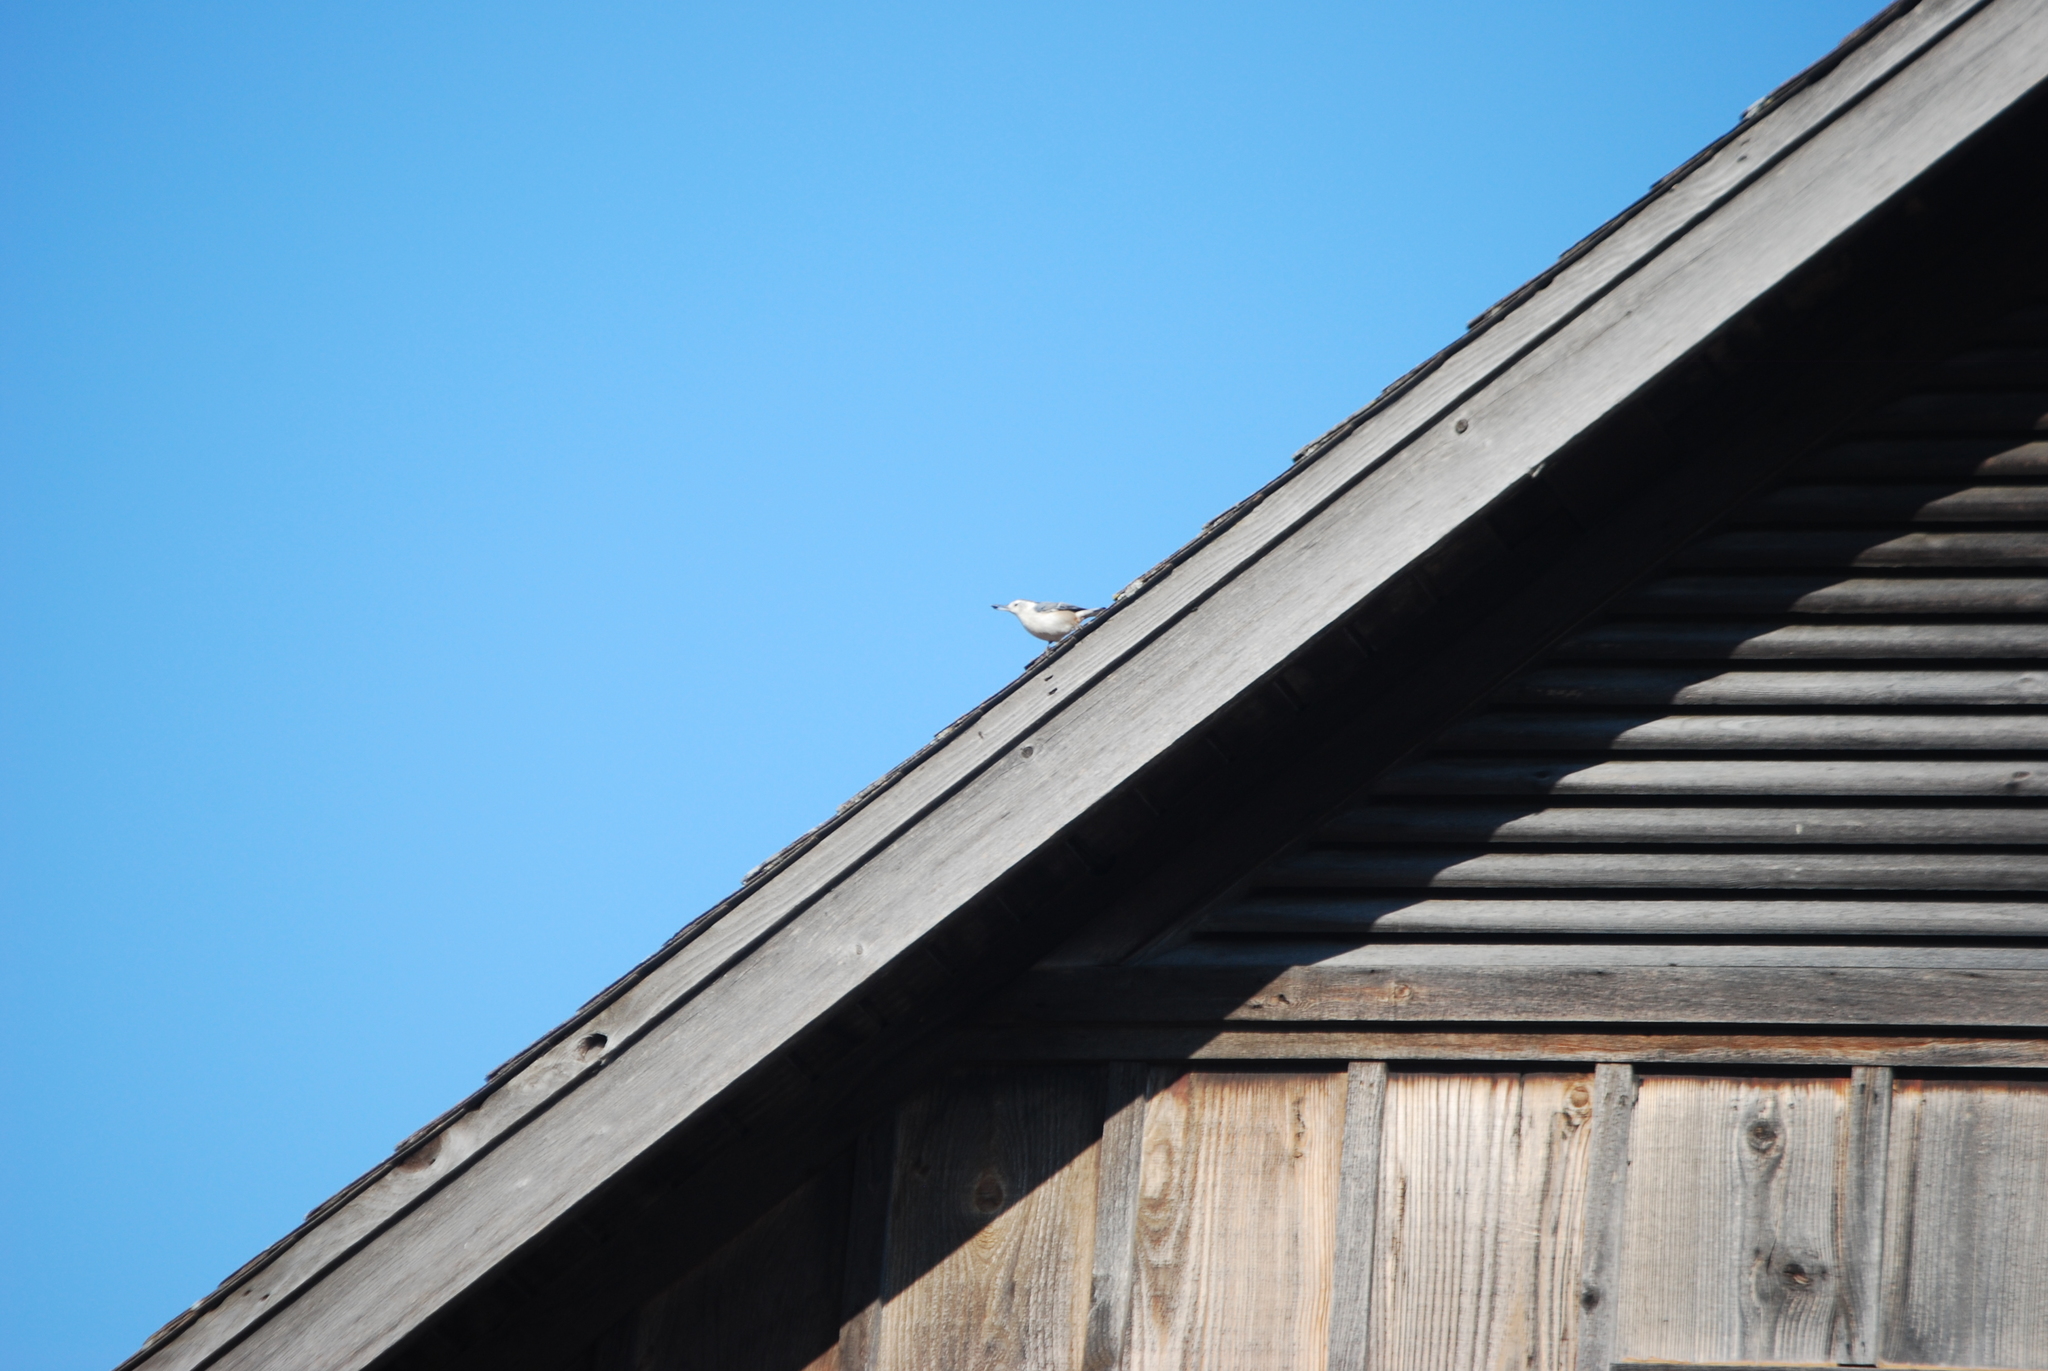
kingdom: Animalia
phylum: Chordata
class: Aves
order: Passeriformes
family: Sittidae
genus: Sitta
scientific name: Sitta carolinensis
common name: White-breasted nuthatch
